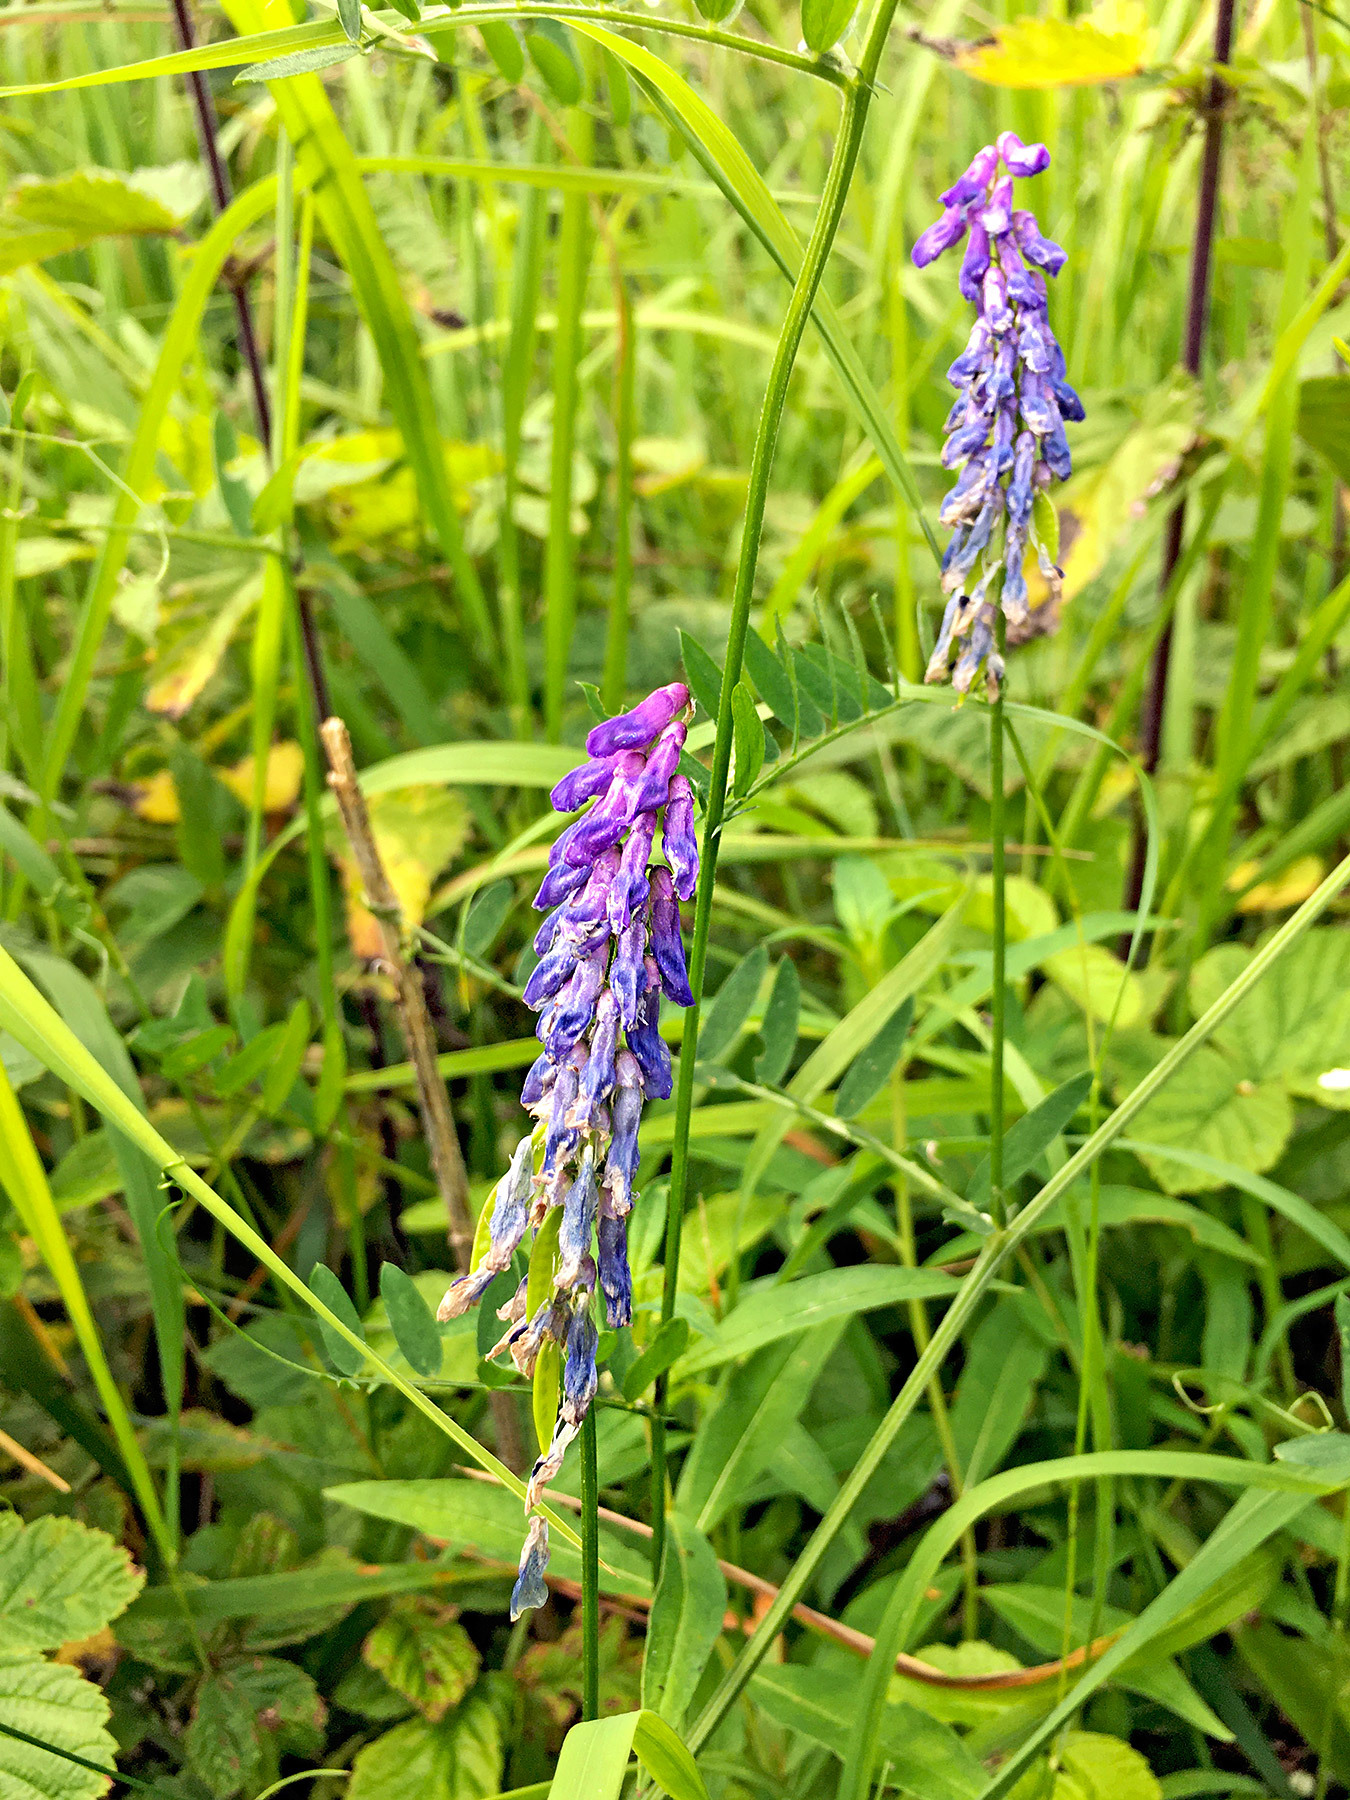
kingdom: Plantae
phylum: Tracheophyta
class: Magnoliopsida
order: Fabales
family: Fabaceae
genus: Vicia
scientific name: Vicia cracca
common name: Bird vetch
